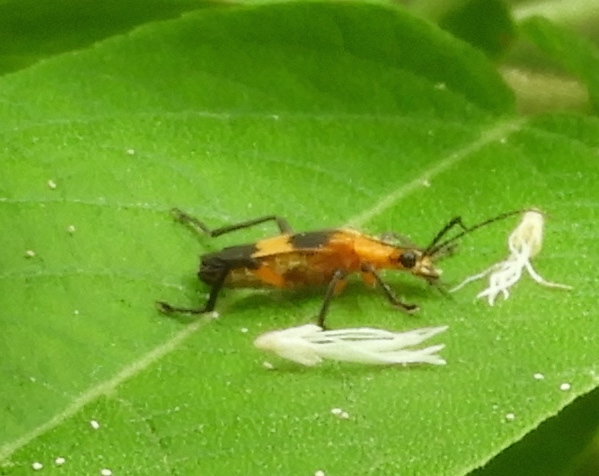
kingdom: Animalia
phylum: Arthropoda
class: Insecta
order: Coleoptera
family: Cantharidae
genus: Daiphron
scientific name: Daiphron proteum
